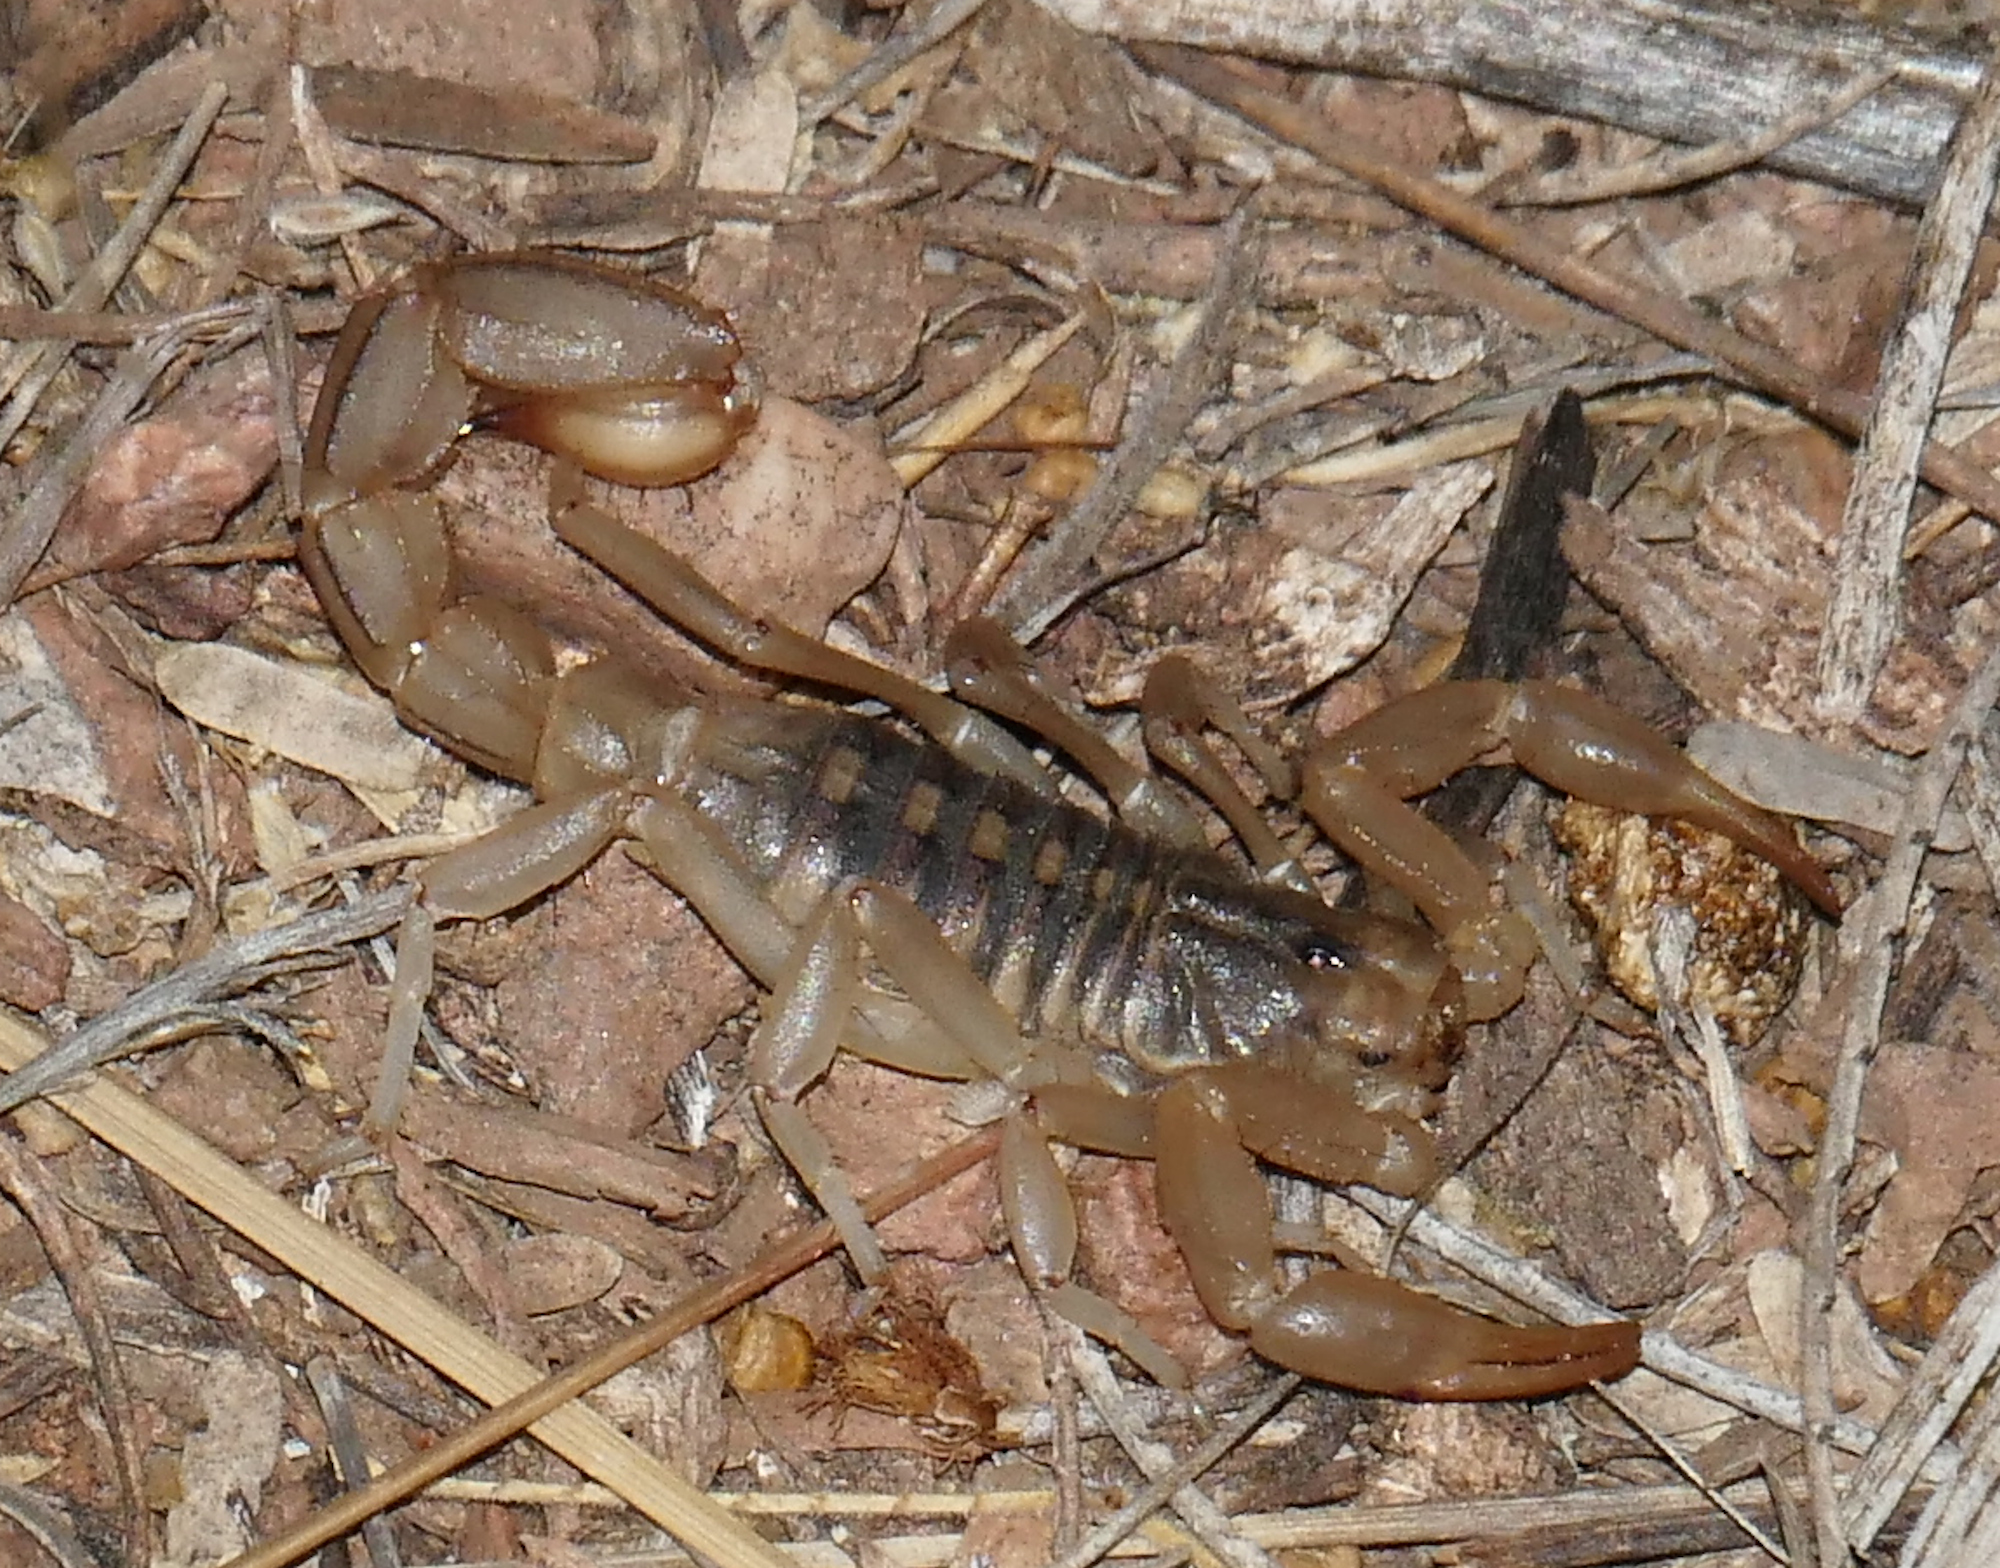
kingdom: Animalia
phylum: Arthropoda
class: Arachnida
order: Scorpiones
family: Vaejovidae
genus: Paravaejovis
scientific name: Paravaejovis spinigerus
